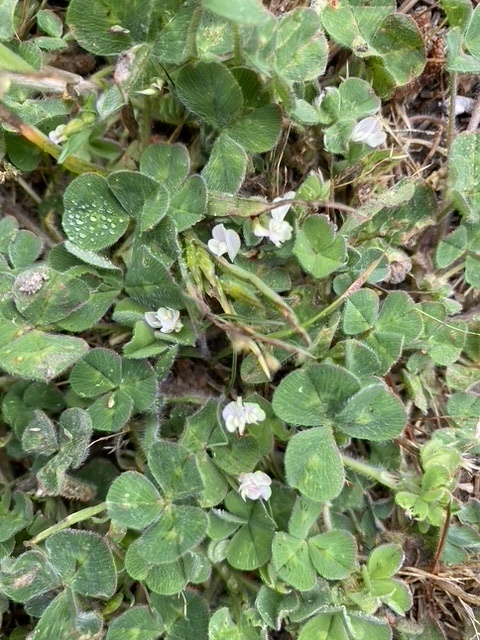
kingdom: Plantae
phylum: Tracheophyta
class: Magnoliopsida
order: Fabales
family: Fabaceae
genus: Trifolium
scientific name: Trifolium subterraneum
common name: Subterranean clover
